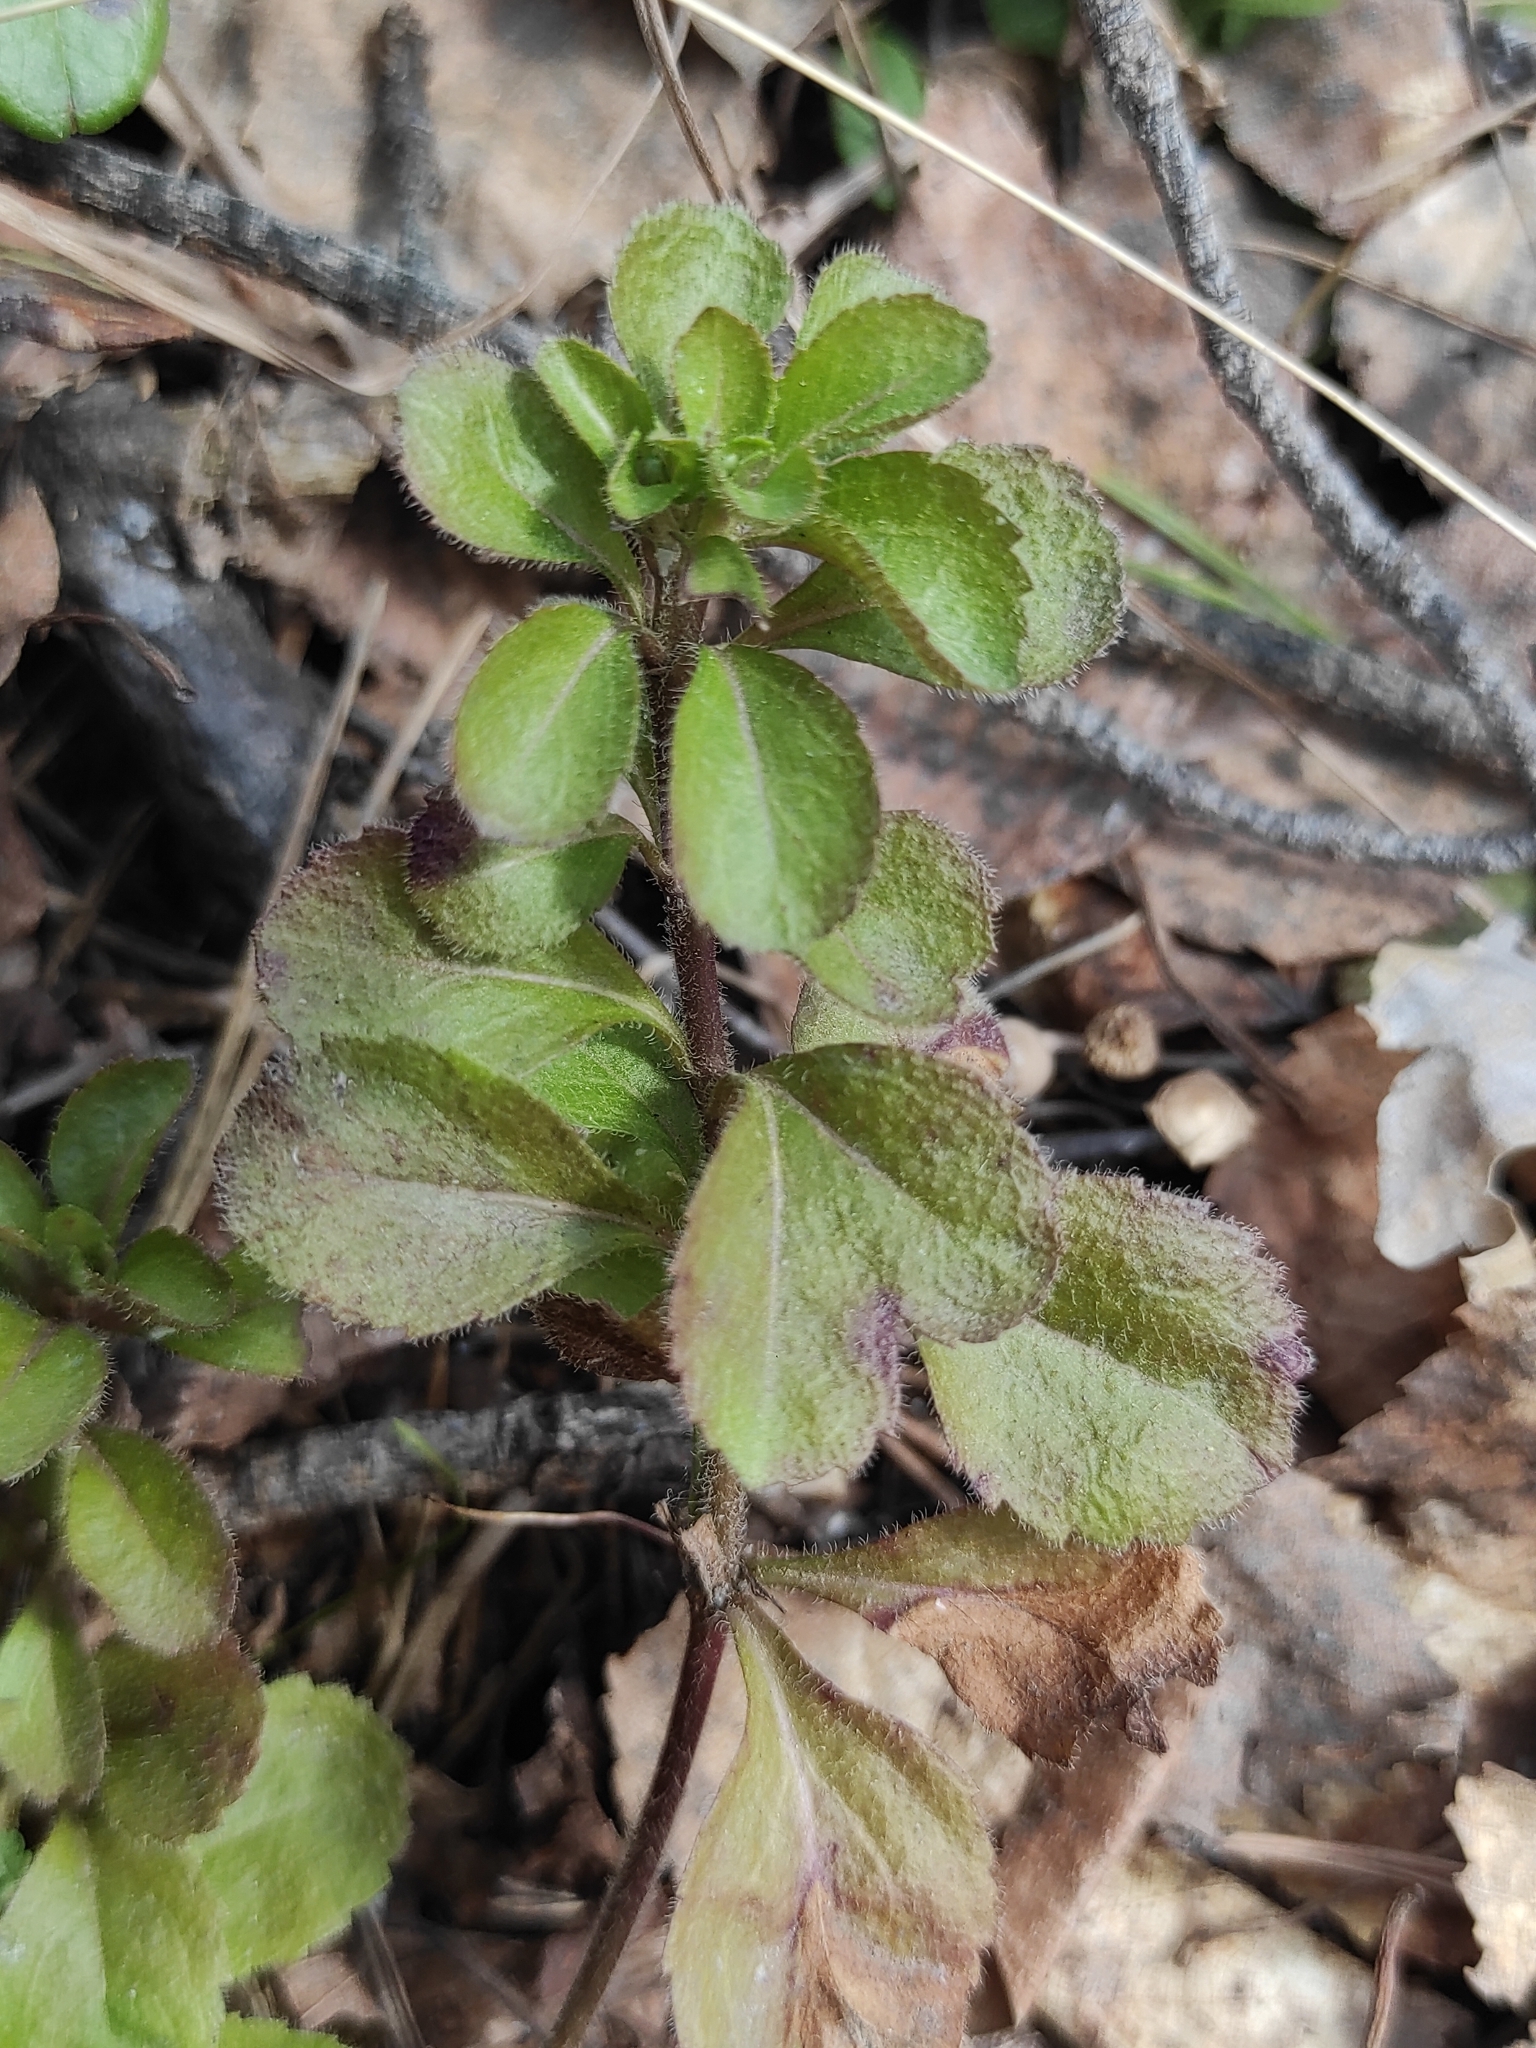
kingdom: Plantae
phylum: Tracheophyta
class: Magnoliopsida
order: Lamiales
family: Plantaginaceae
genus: Veronica
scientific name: Veronica officinalis
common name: Common speedwell
